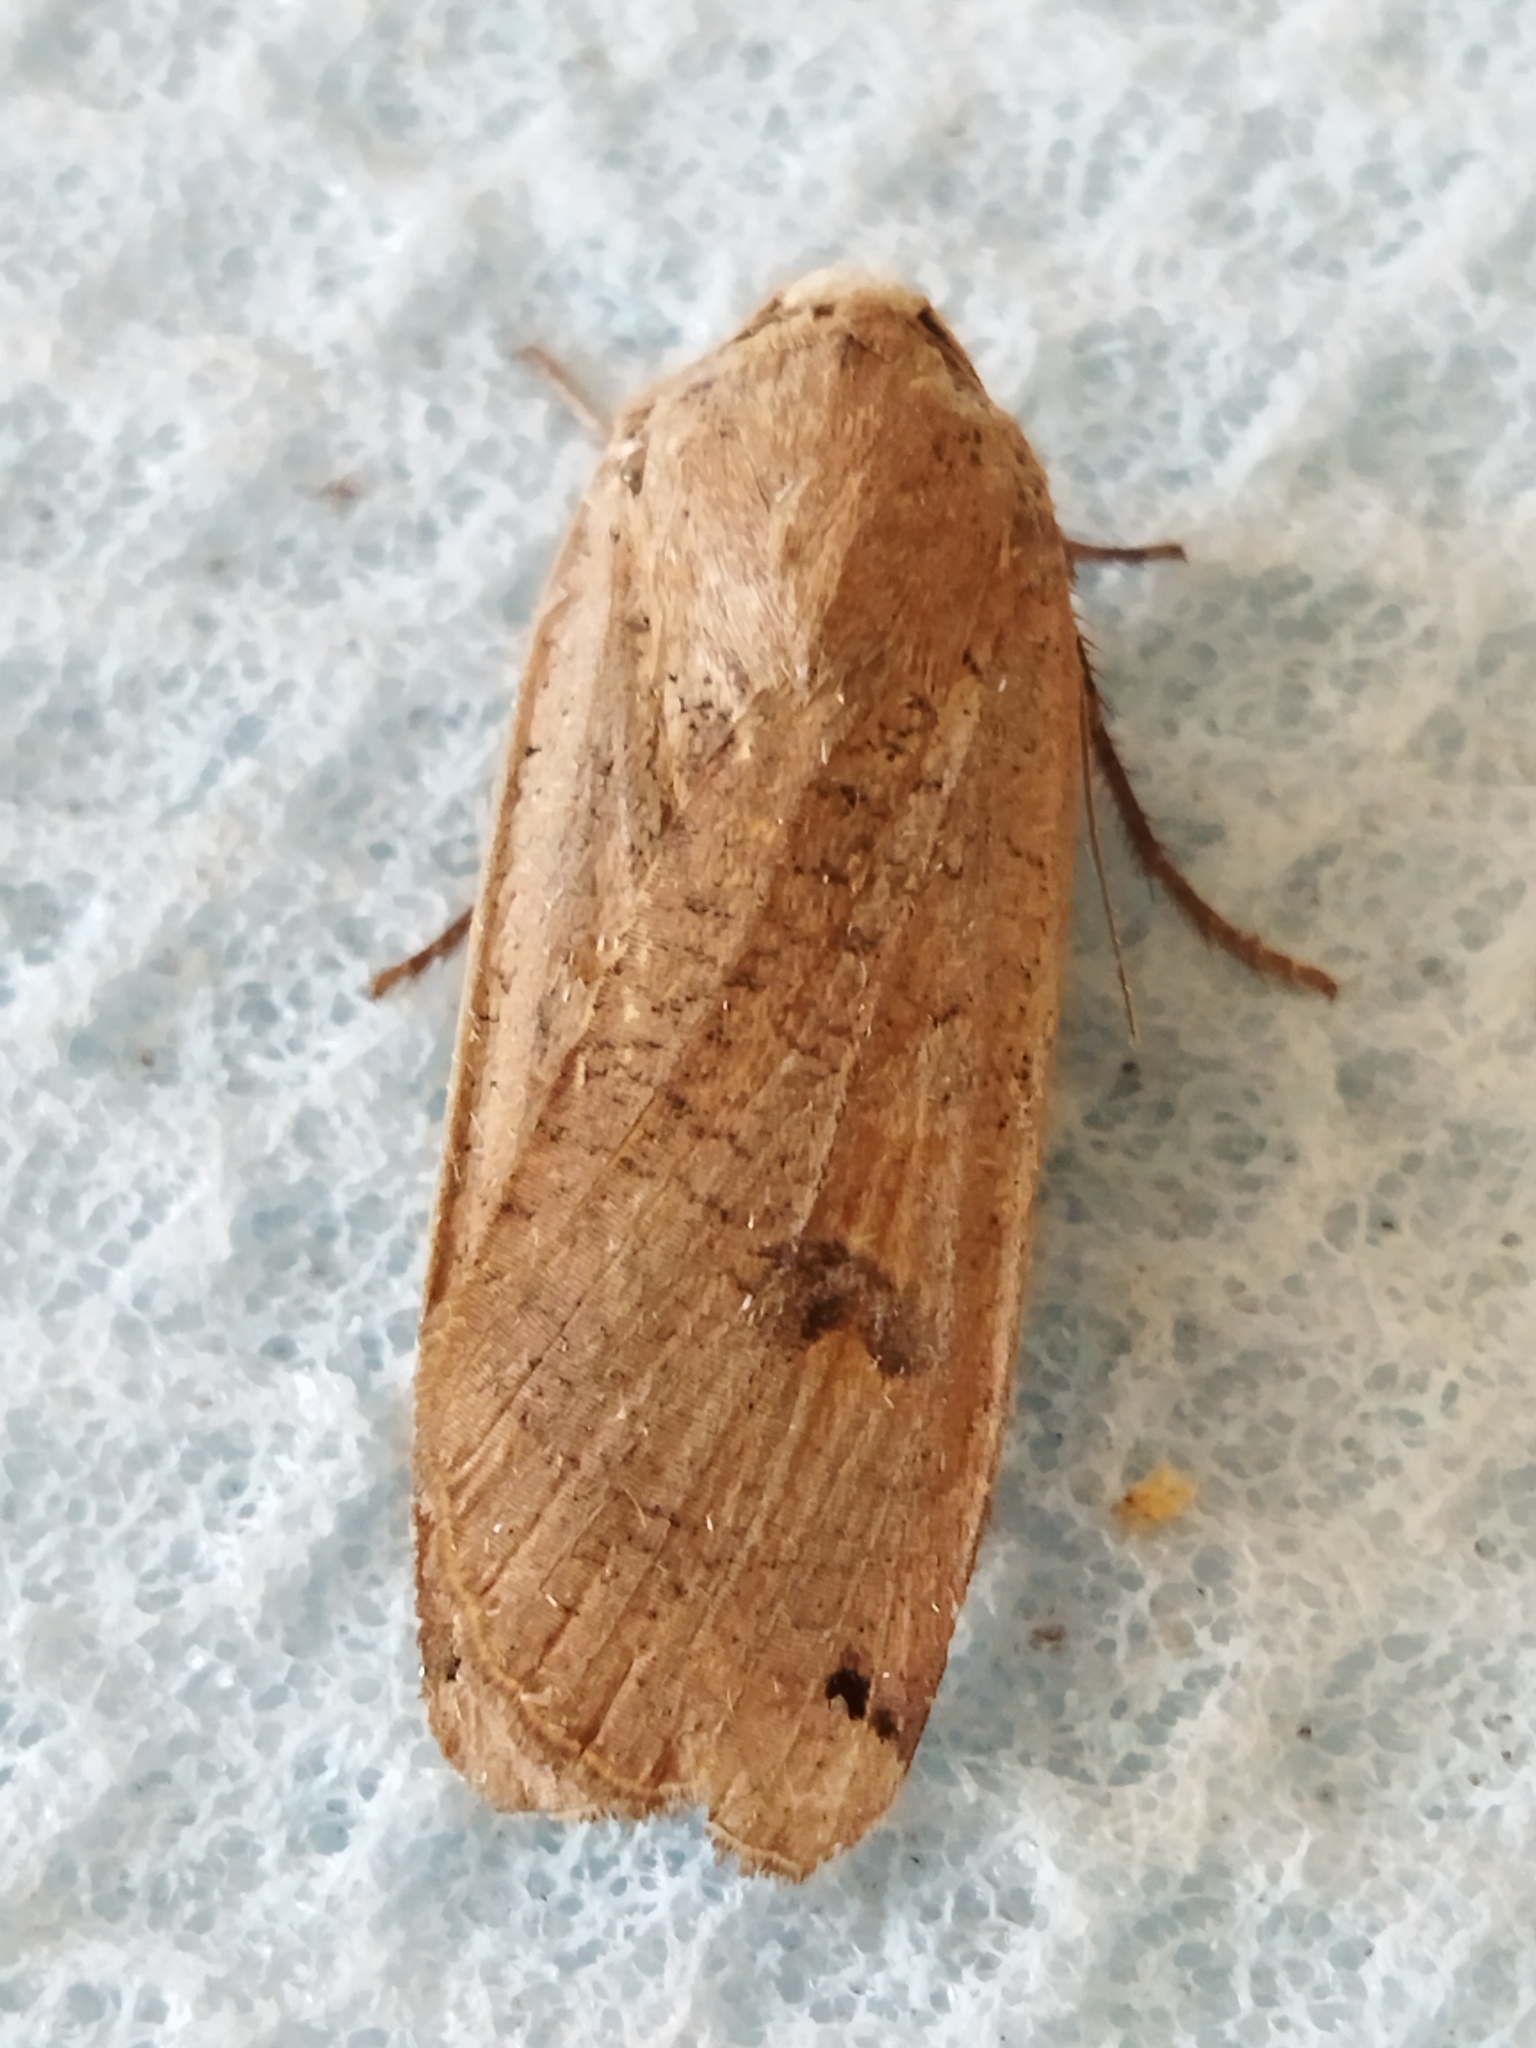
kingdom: Animalia
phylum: Arthropoda
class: Insecta
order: Lepidoptera
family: Noctuidae
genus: Noctua
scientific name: Noctua pronuba
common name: Large yellow underwing
